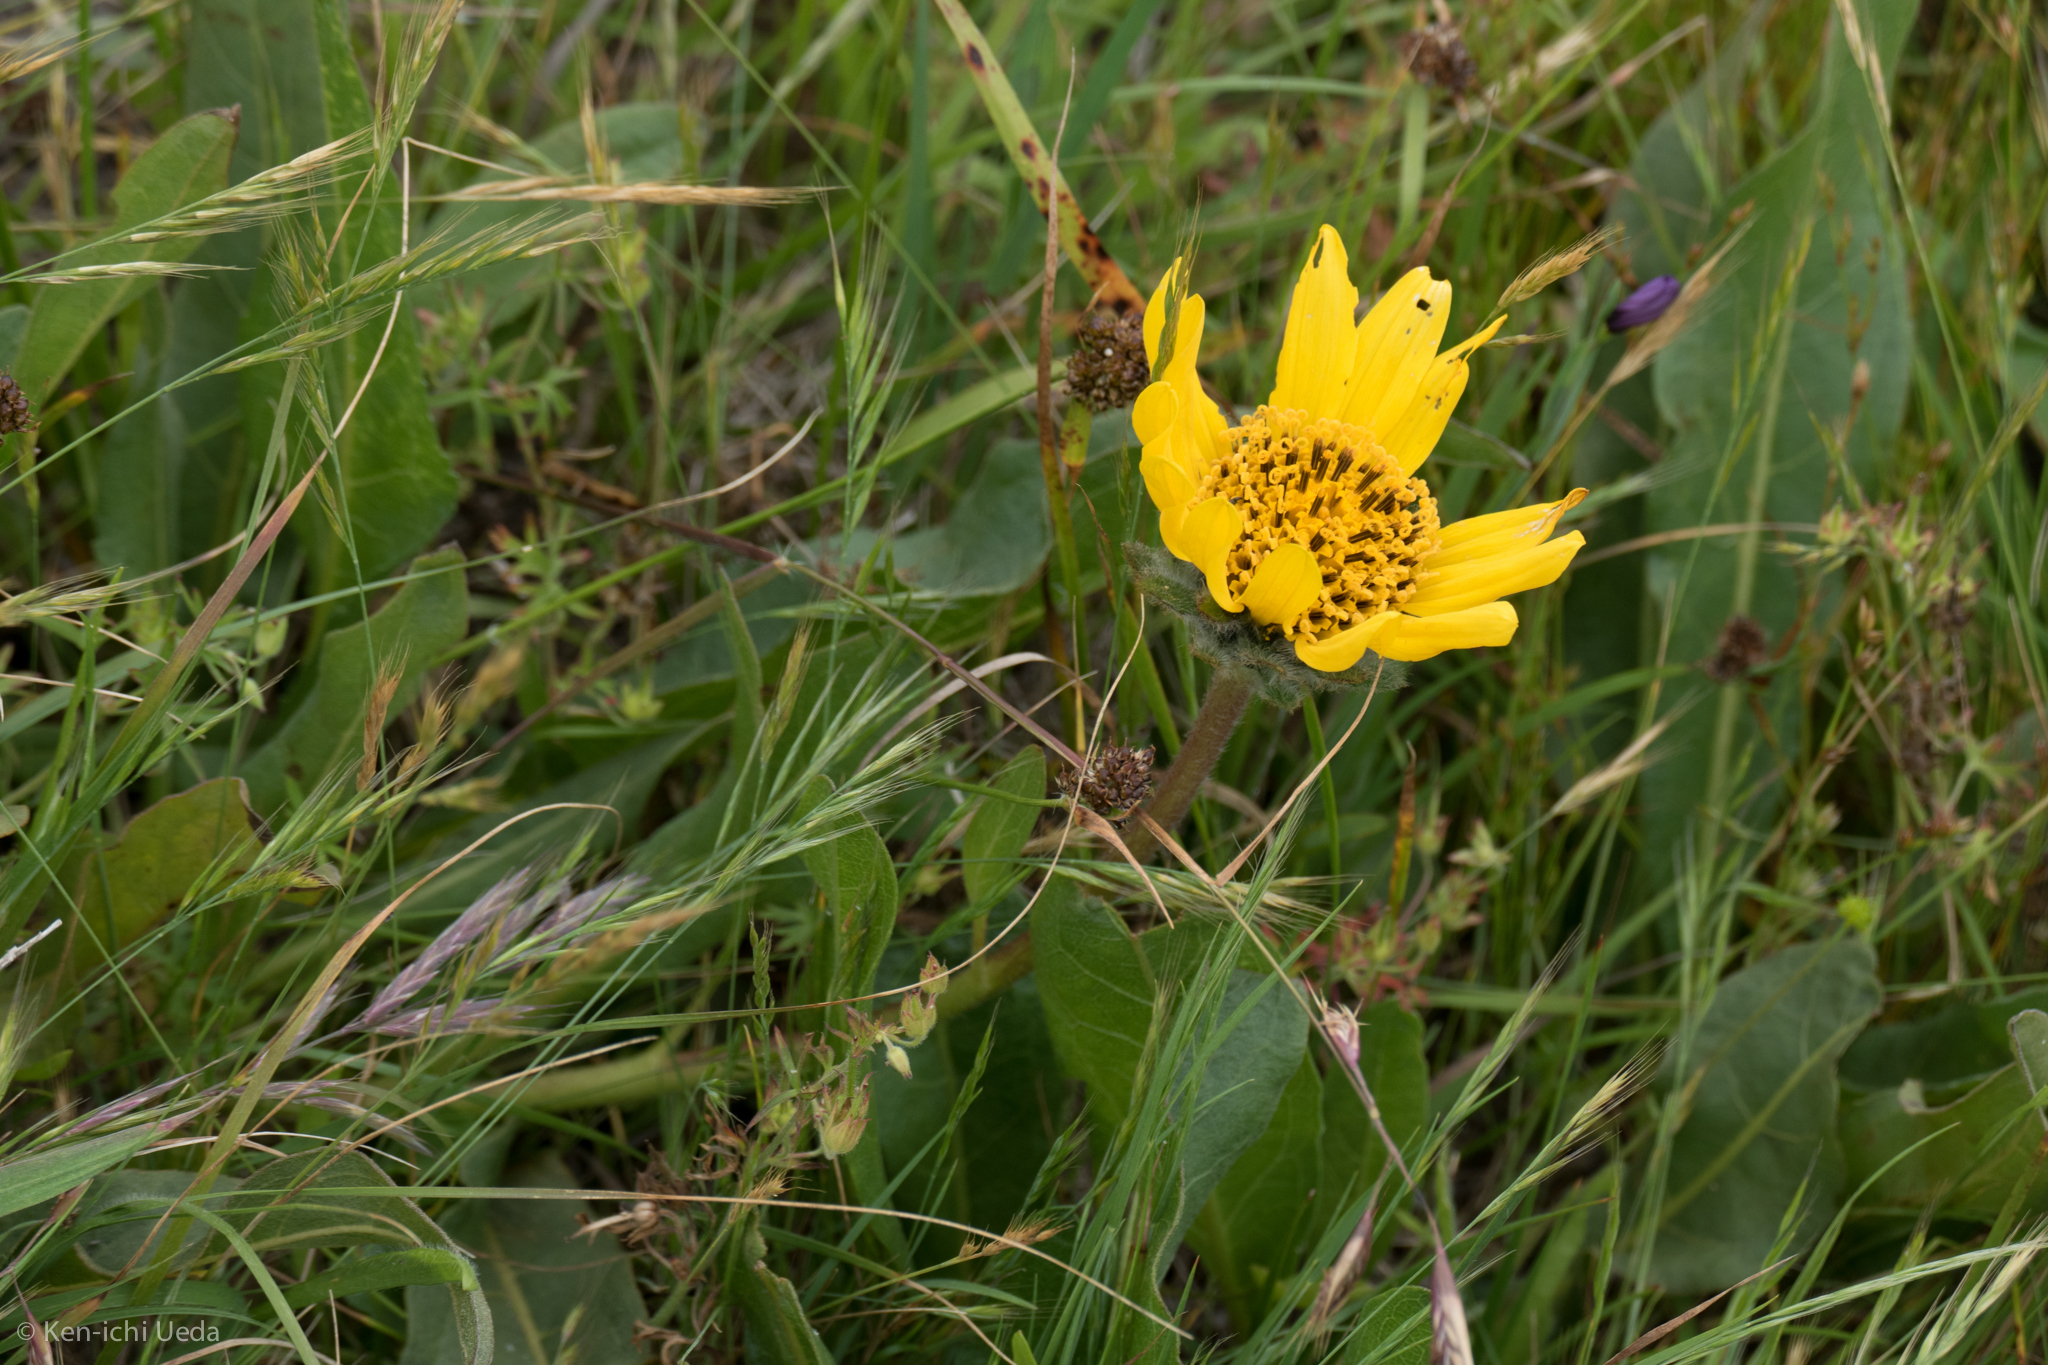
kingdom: Plantae
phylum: Tracheophyta
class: Magnoliopsida
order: Asterales
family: Asteraceae
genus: Wyethia
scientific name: Wyethia angustifolia
